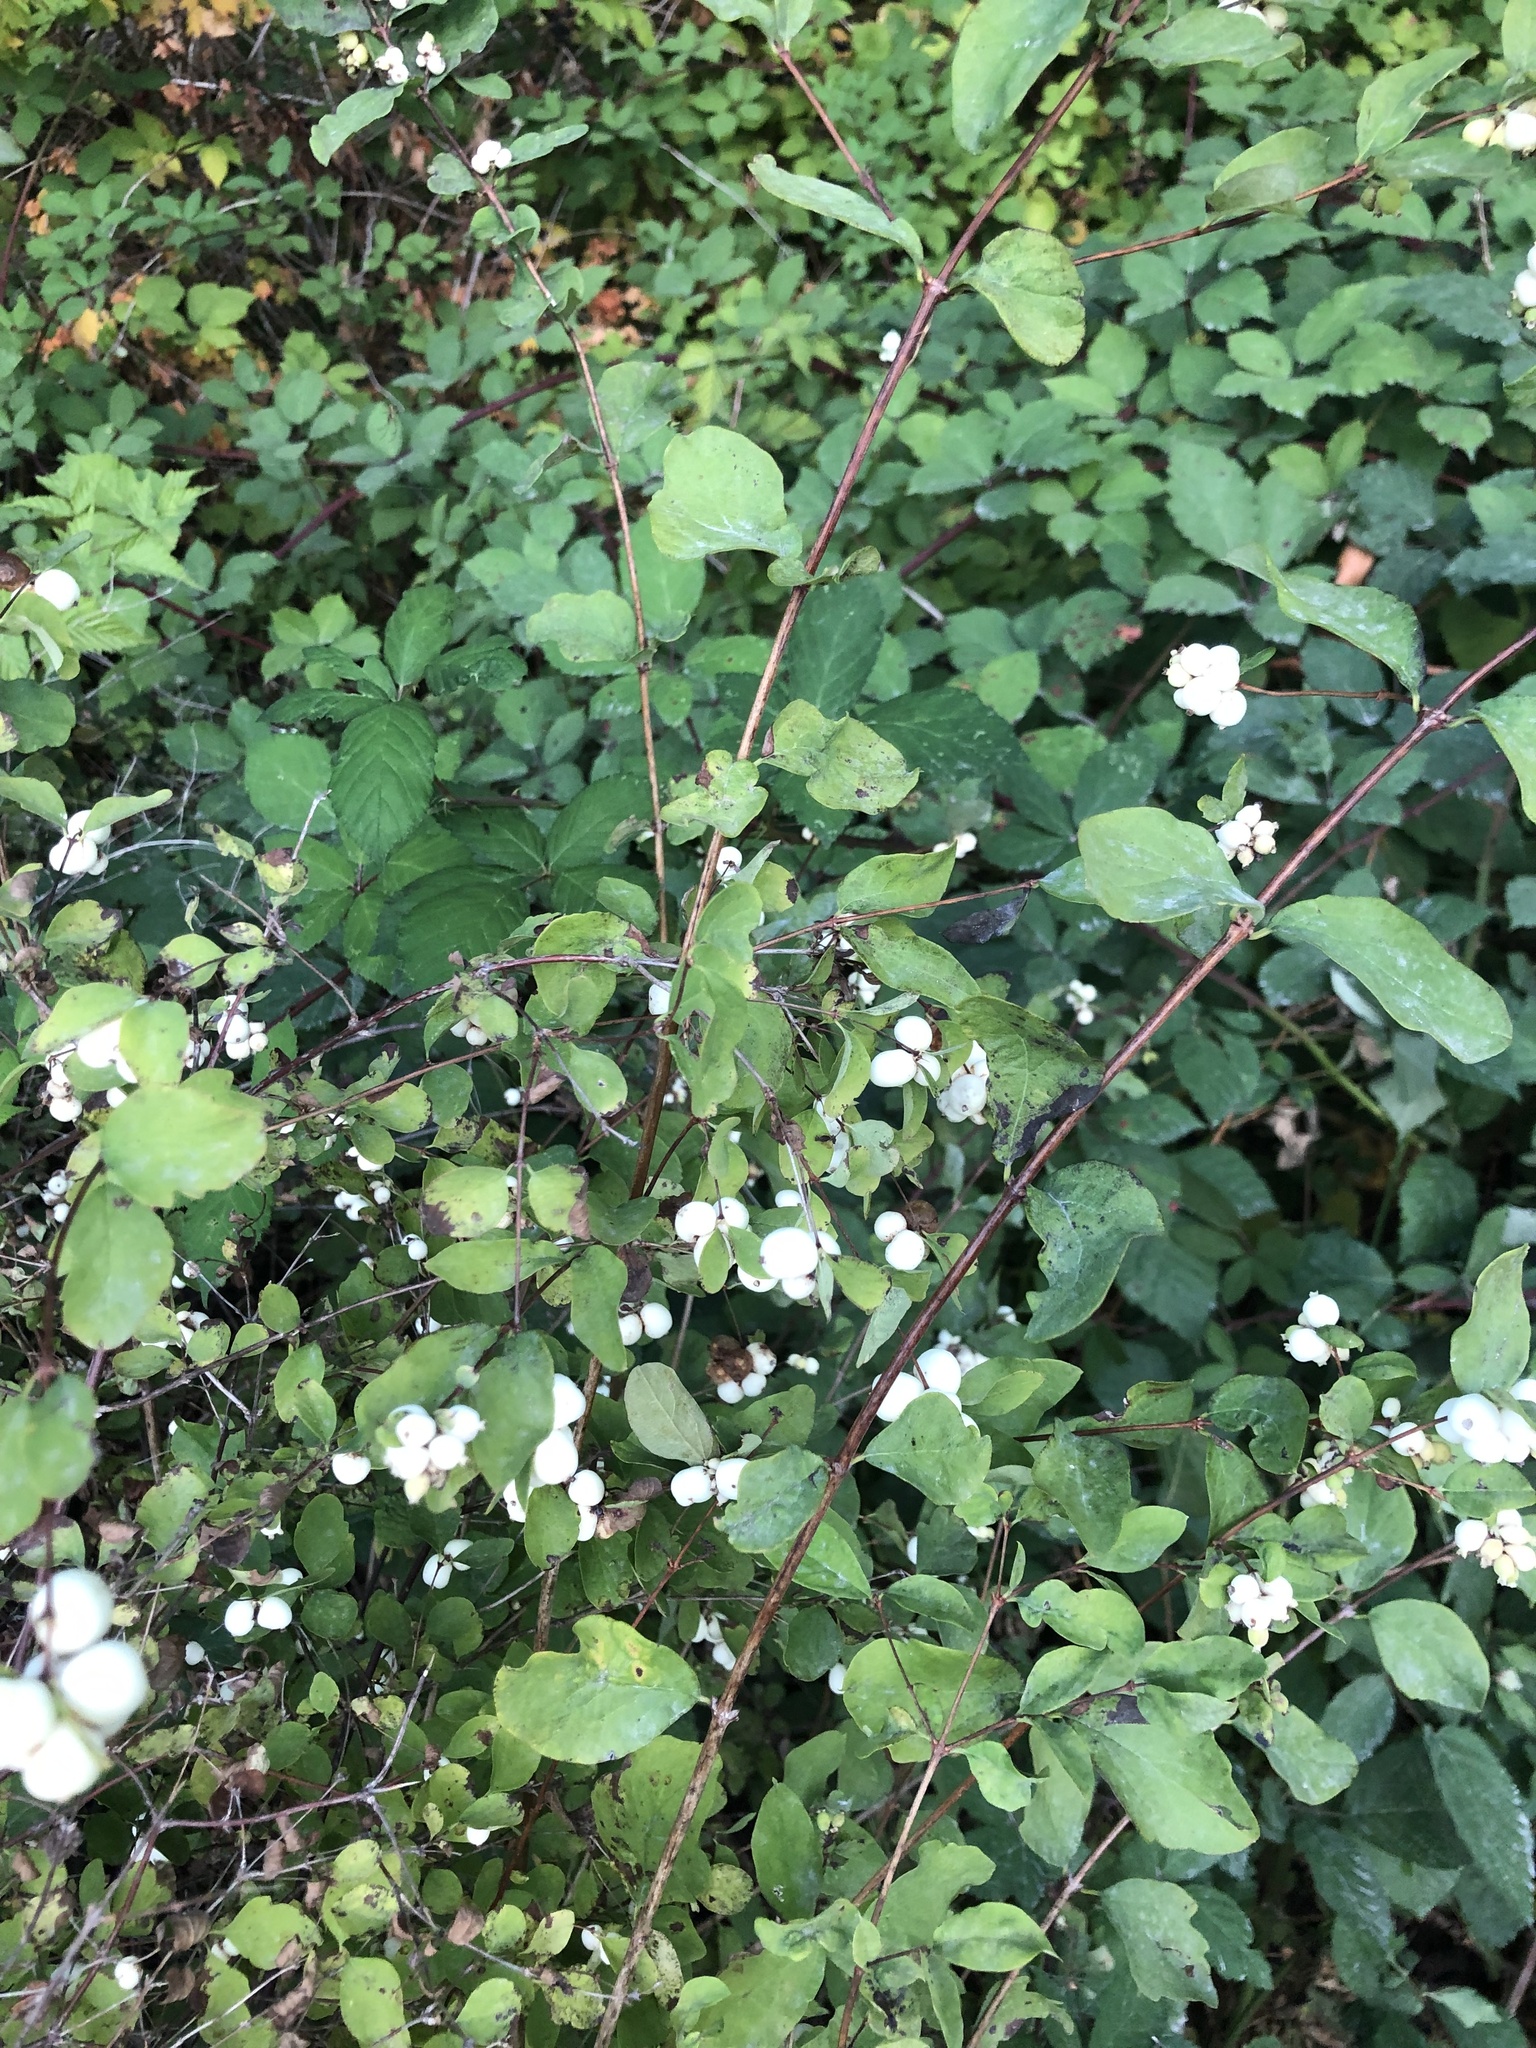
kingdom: Plantae
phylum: Tracheophyta
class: Magnoliopsida
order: Dipsacales
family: Caprifoliaceae
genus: Symphoricarpos
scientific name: Symphoricarpos albus
